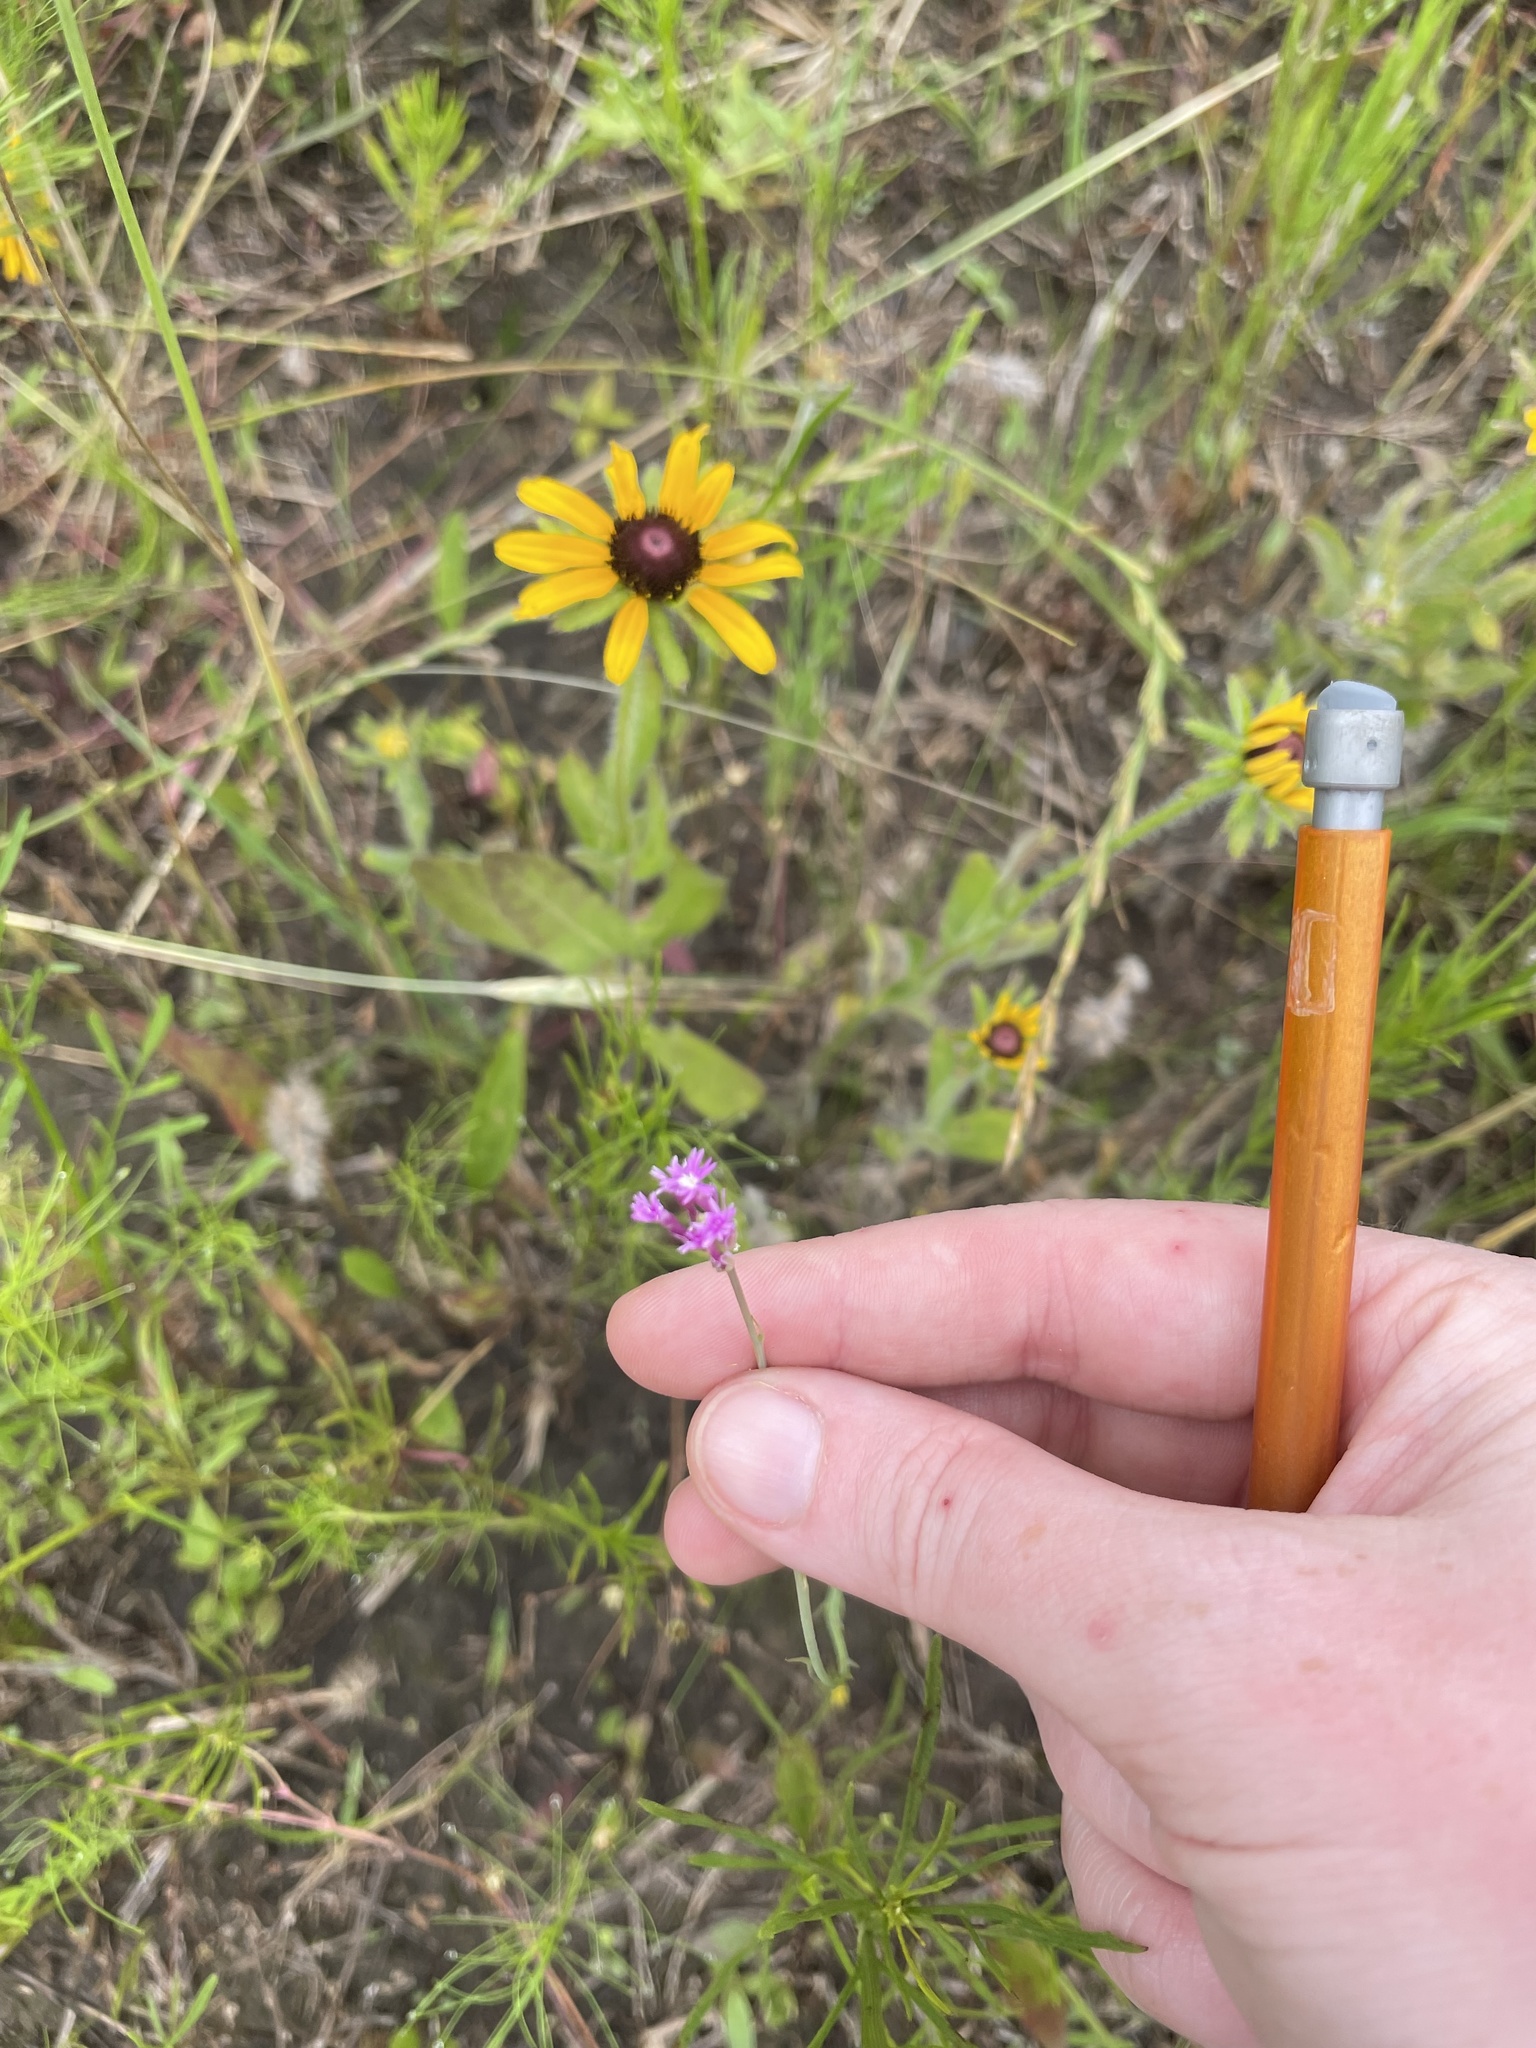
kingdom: Plantae
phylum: Tracheophyta
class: Magnoliopsida
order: Fabales
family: Polygalaceae
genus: Polygala
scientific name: Polygala incarnata
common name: Pink milkwort
